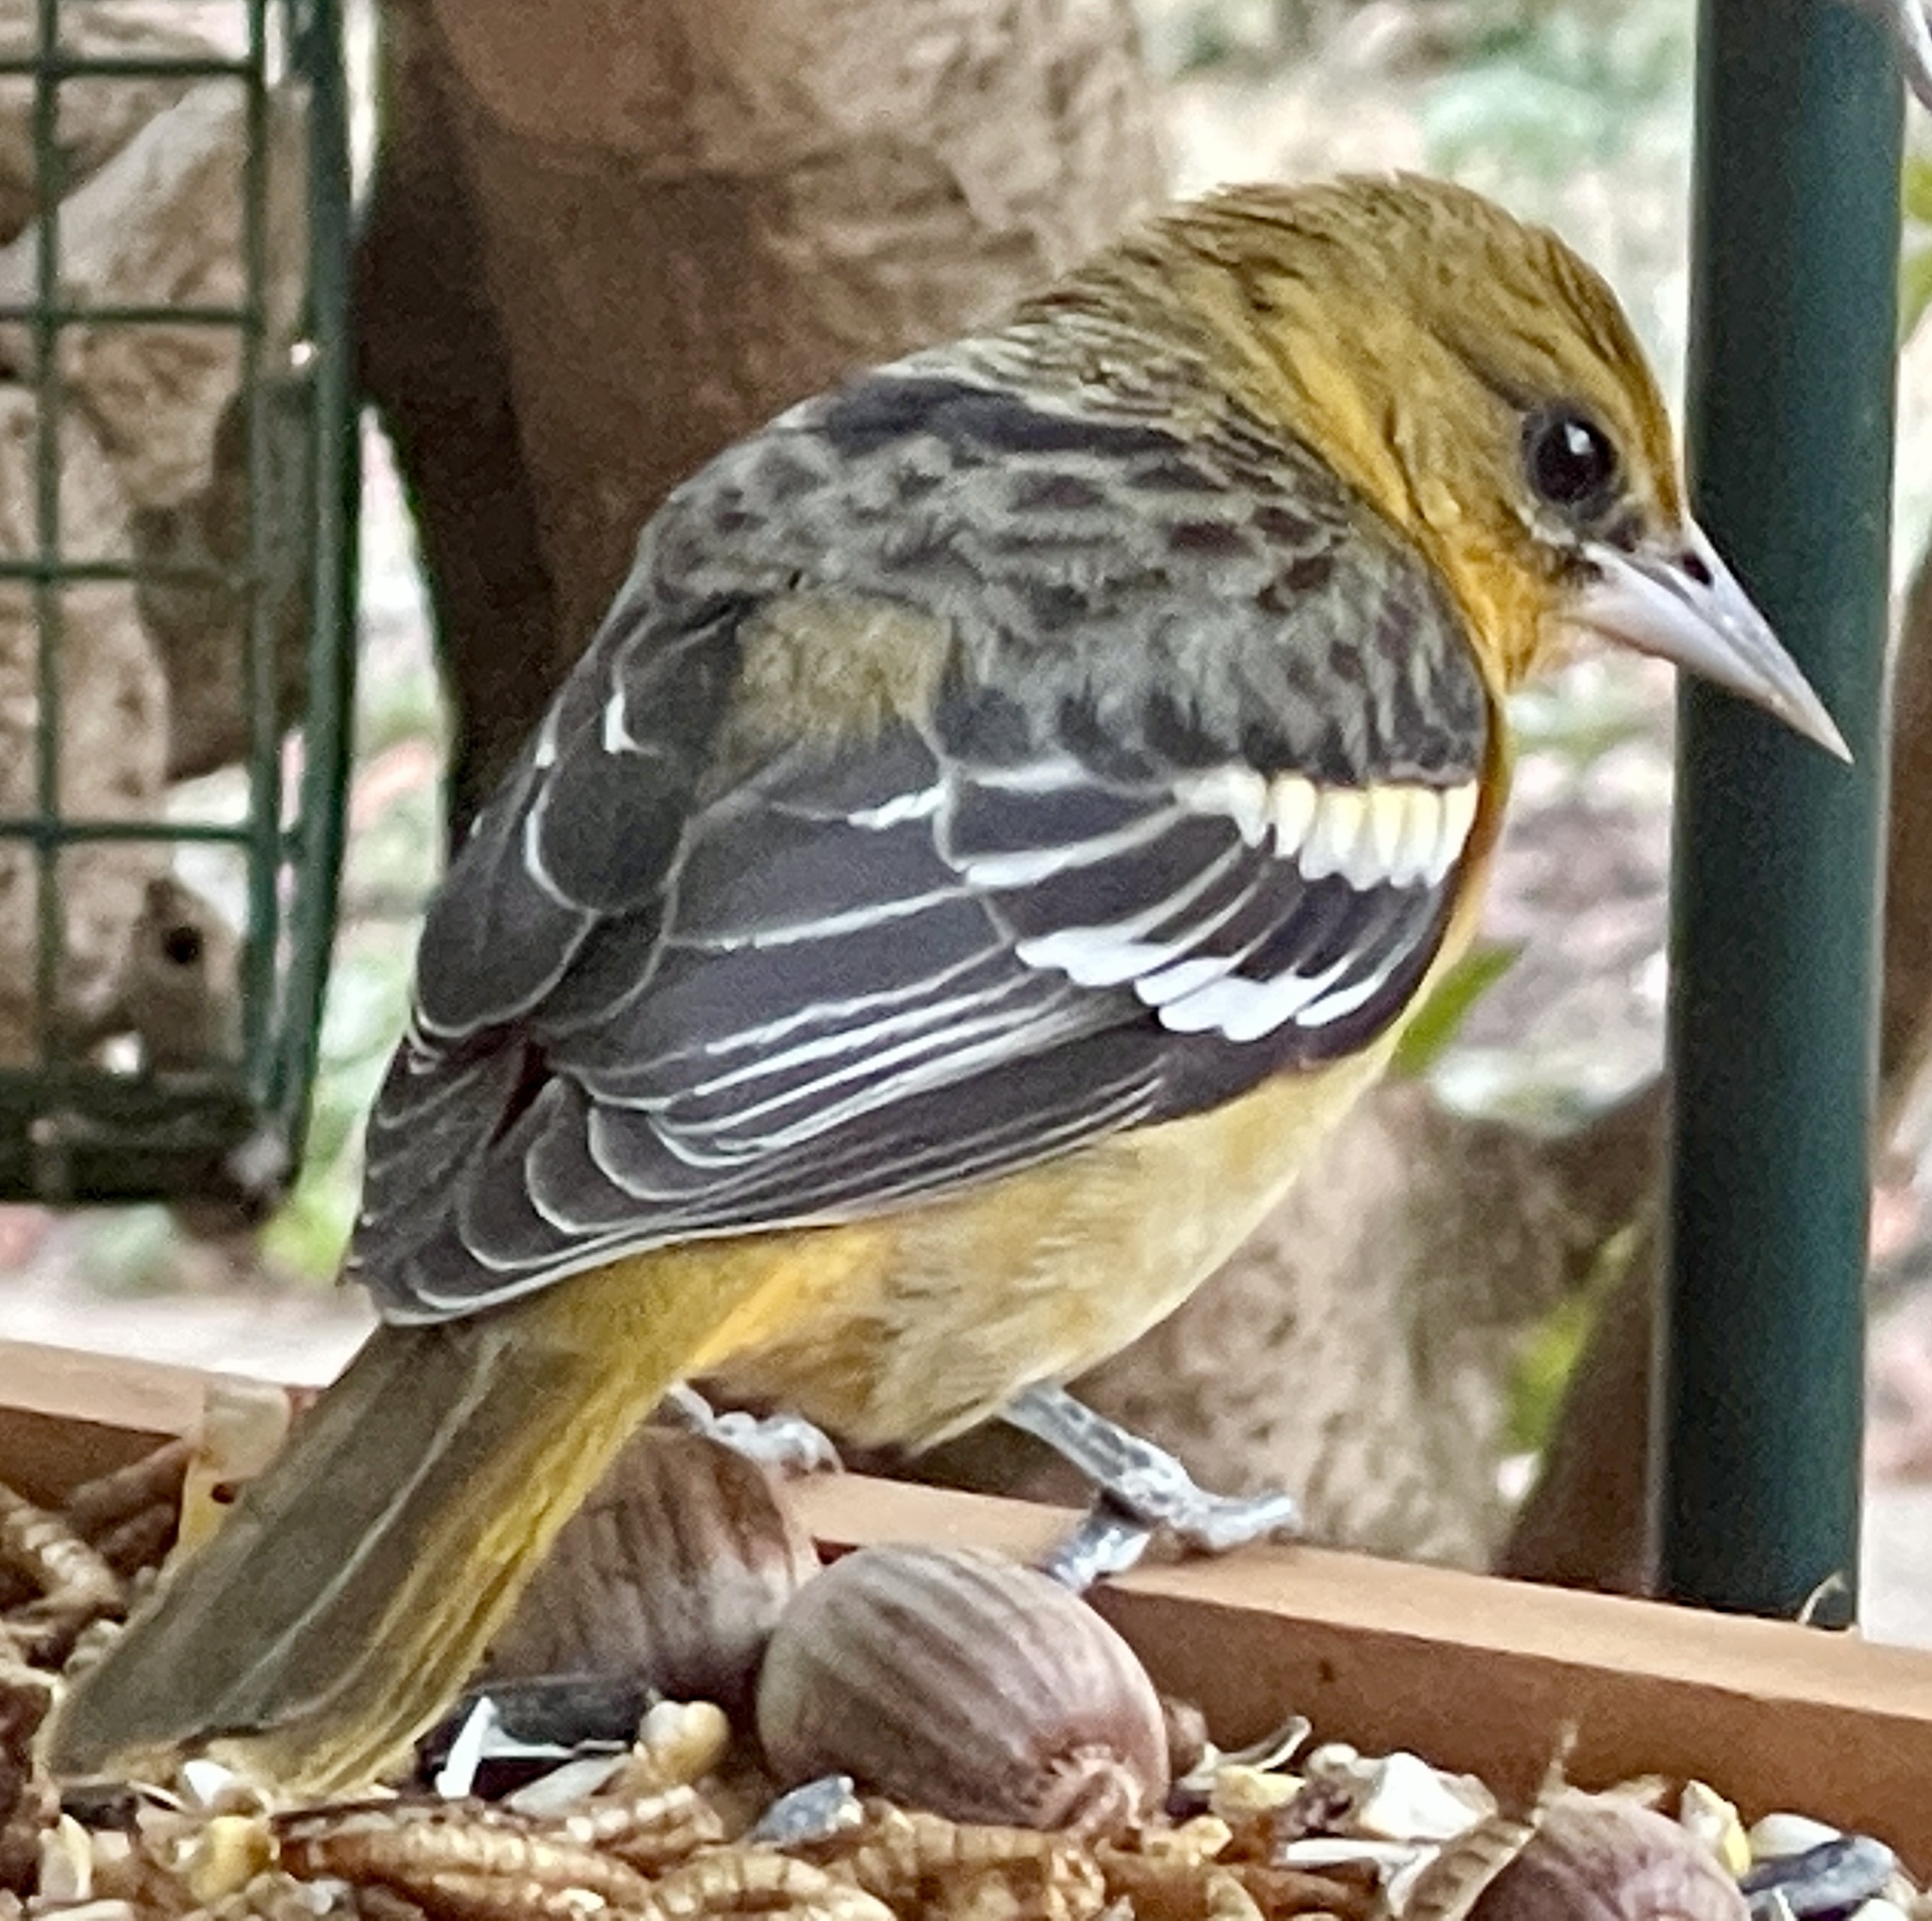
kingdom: Animalia
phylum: Chordata
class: Aves
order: Passeriformes
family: Icteridae
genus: Icterus
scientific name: Icterus galbula
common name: Baltimore oriole
